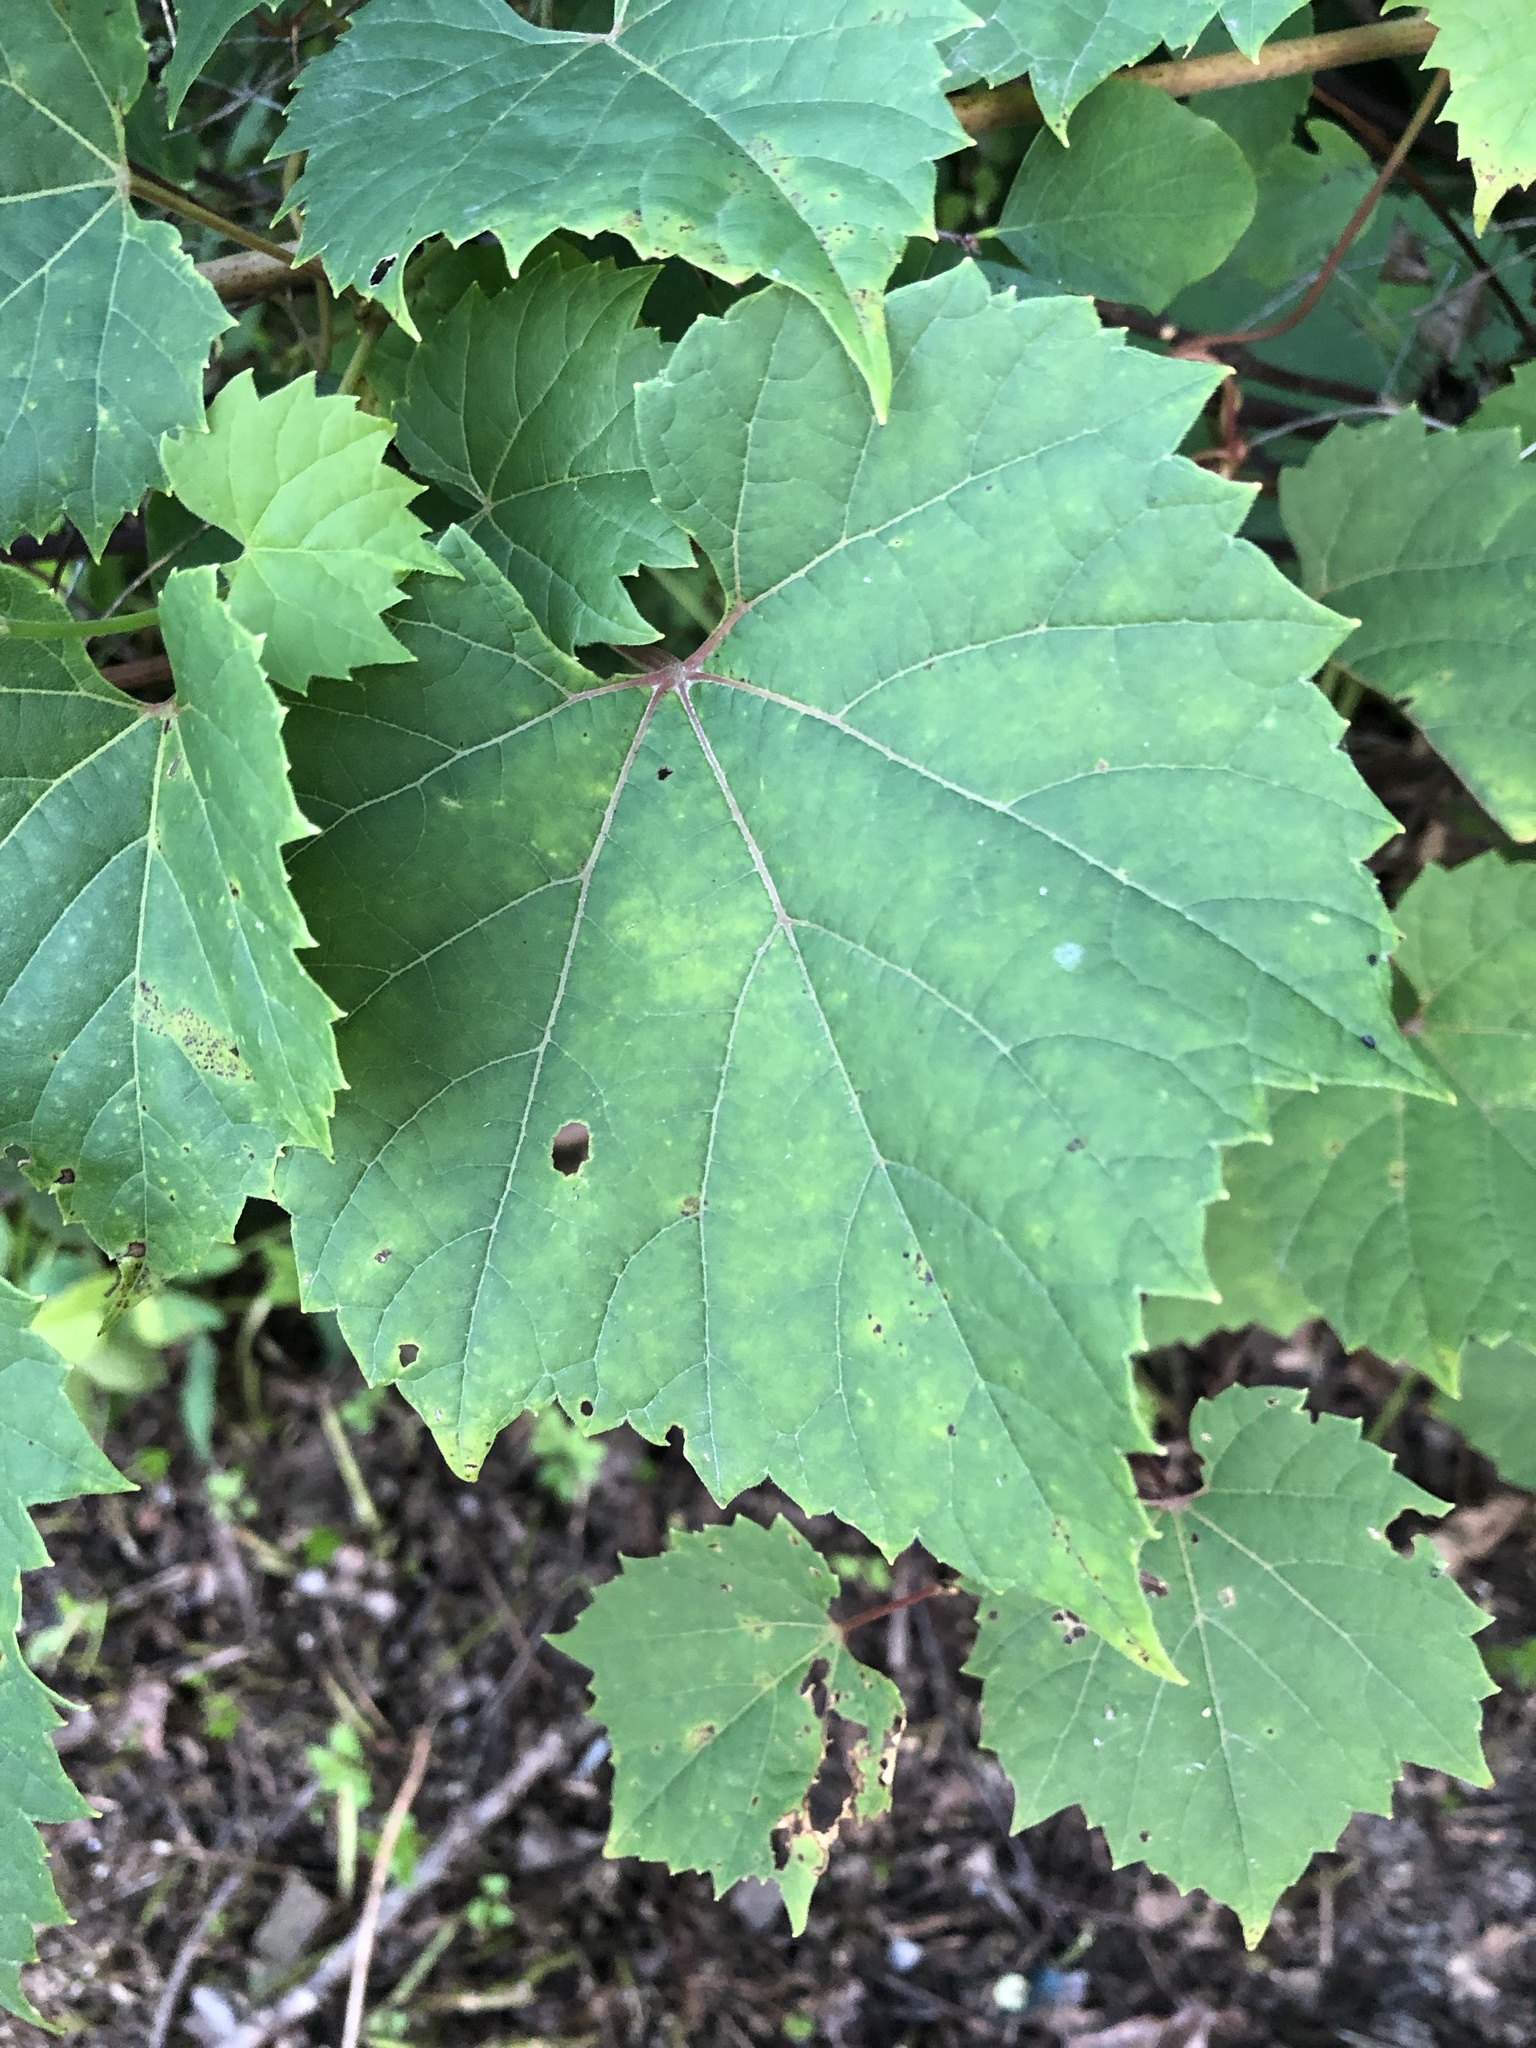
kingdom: Plantae
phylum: Tracheophyta
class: Magnoliopsida
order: Vitales
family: Vitaceae
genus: Vitis
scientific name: Vitis riparia
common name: Frost grape
